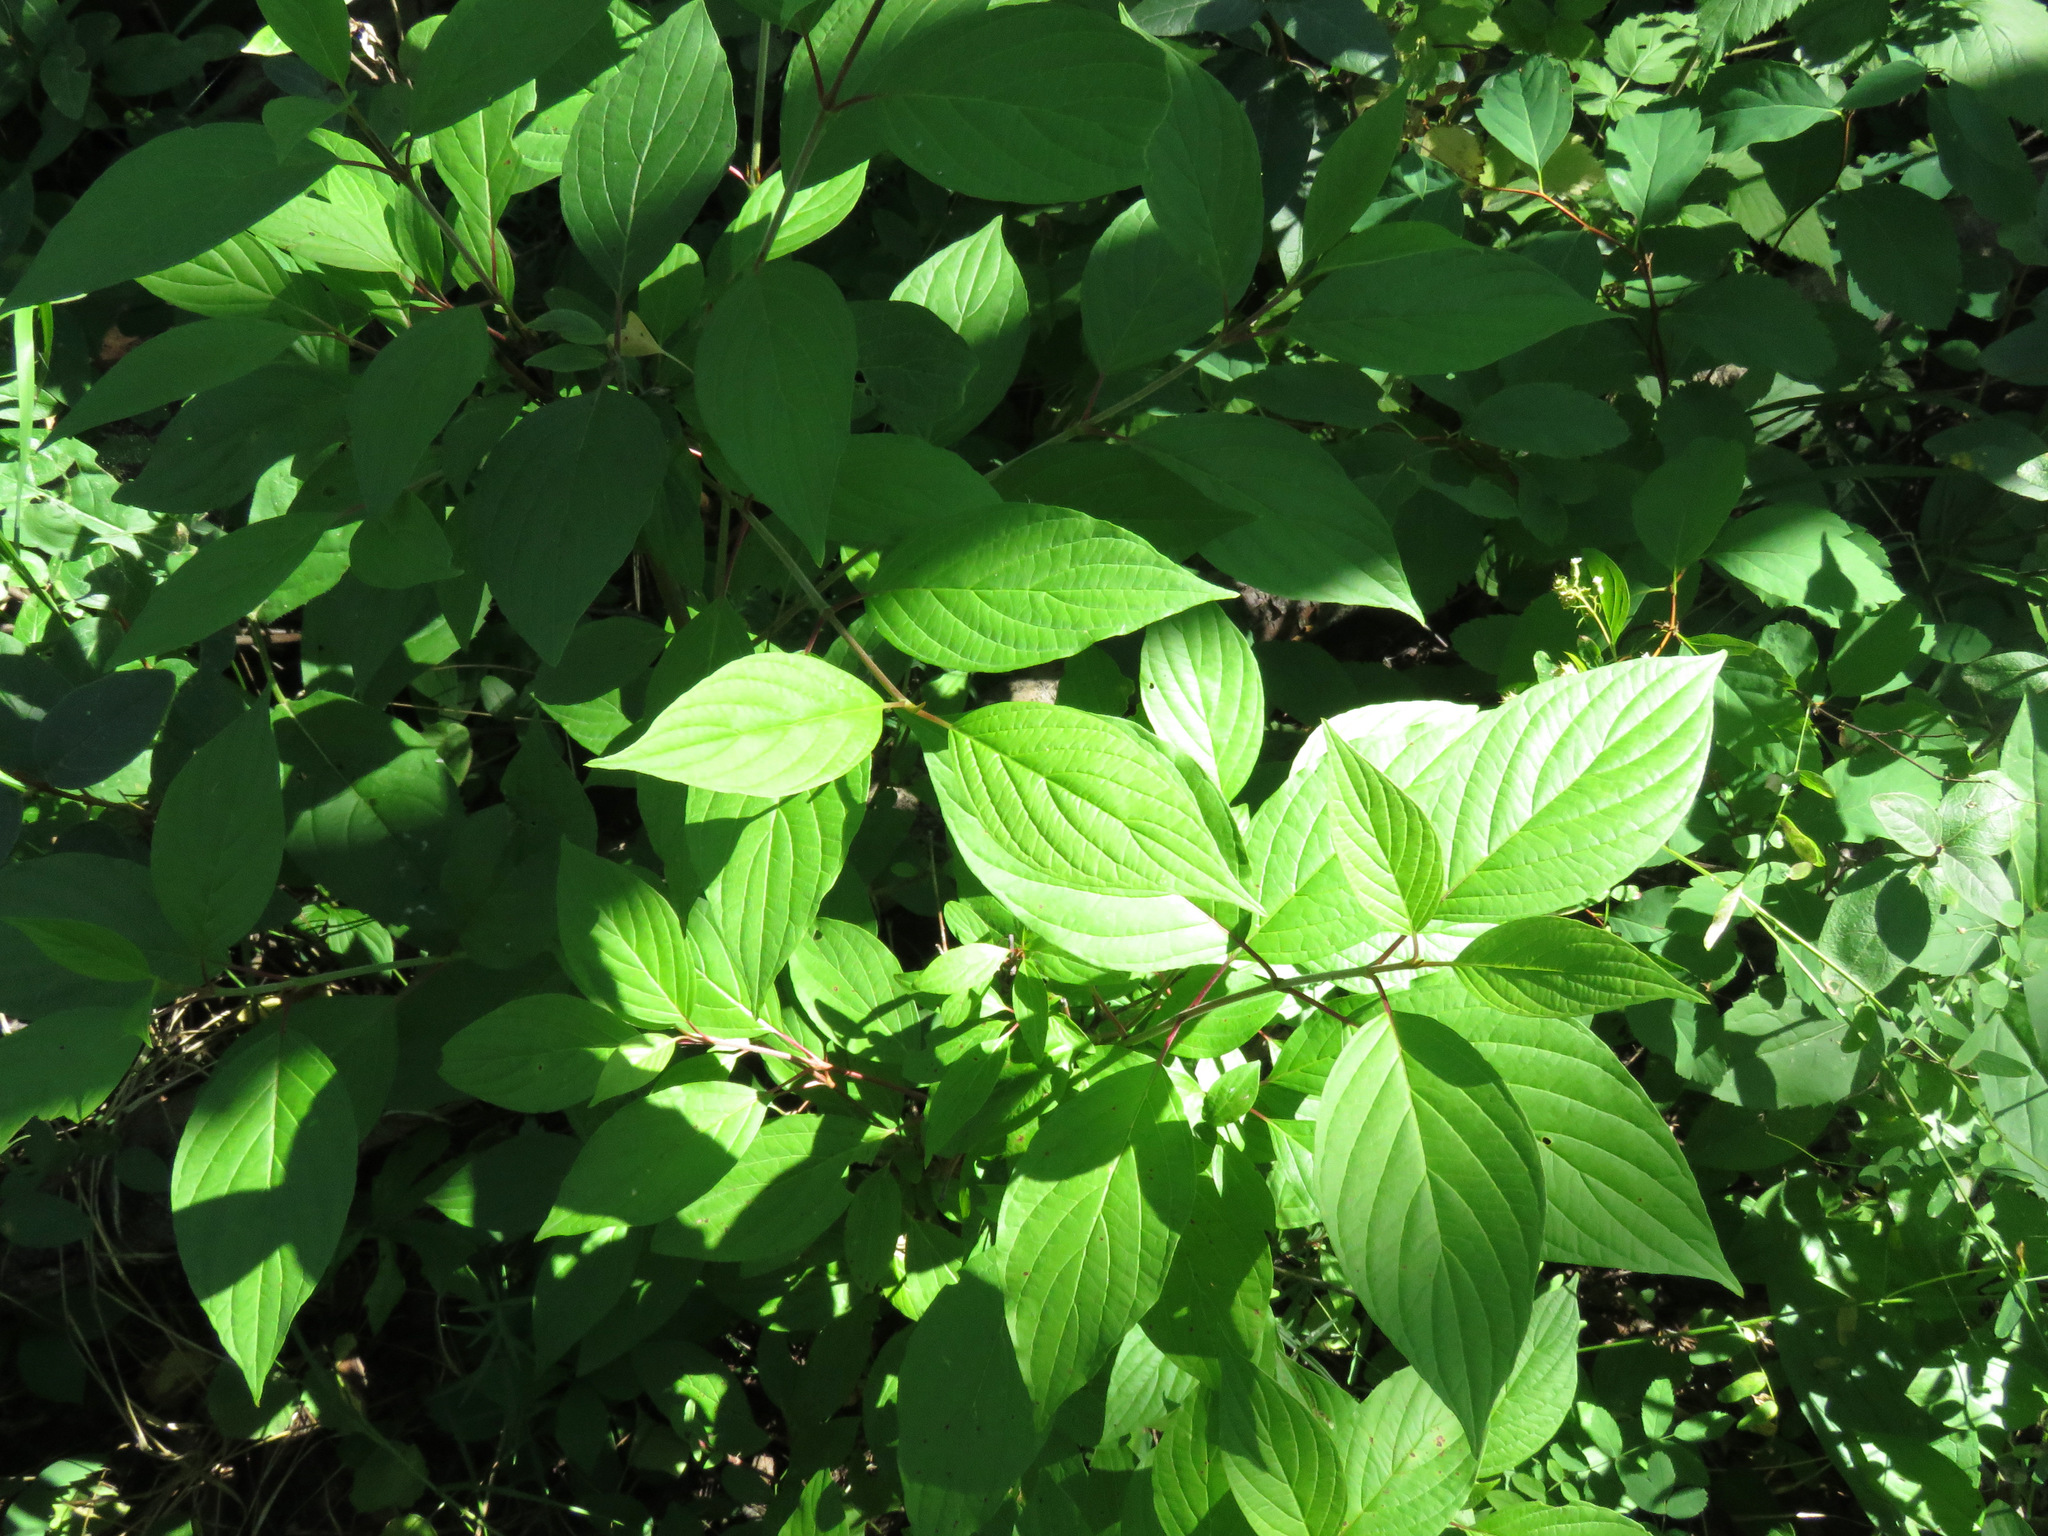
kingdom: Plantae
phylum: Tracheophyta
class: Magnoliopsida
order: Cornales
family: Cornaceae
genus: Cornus
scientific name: Cornus sericea
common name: Red-osier dogwood
